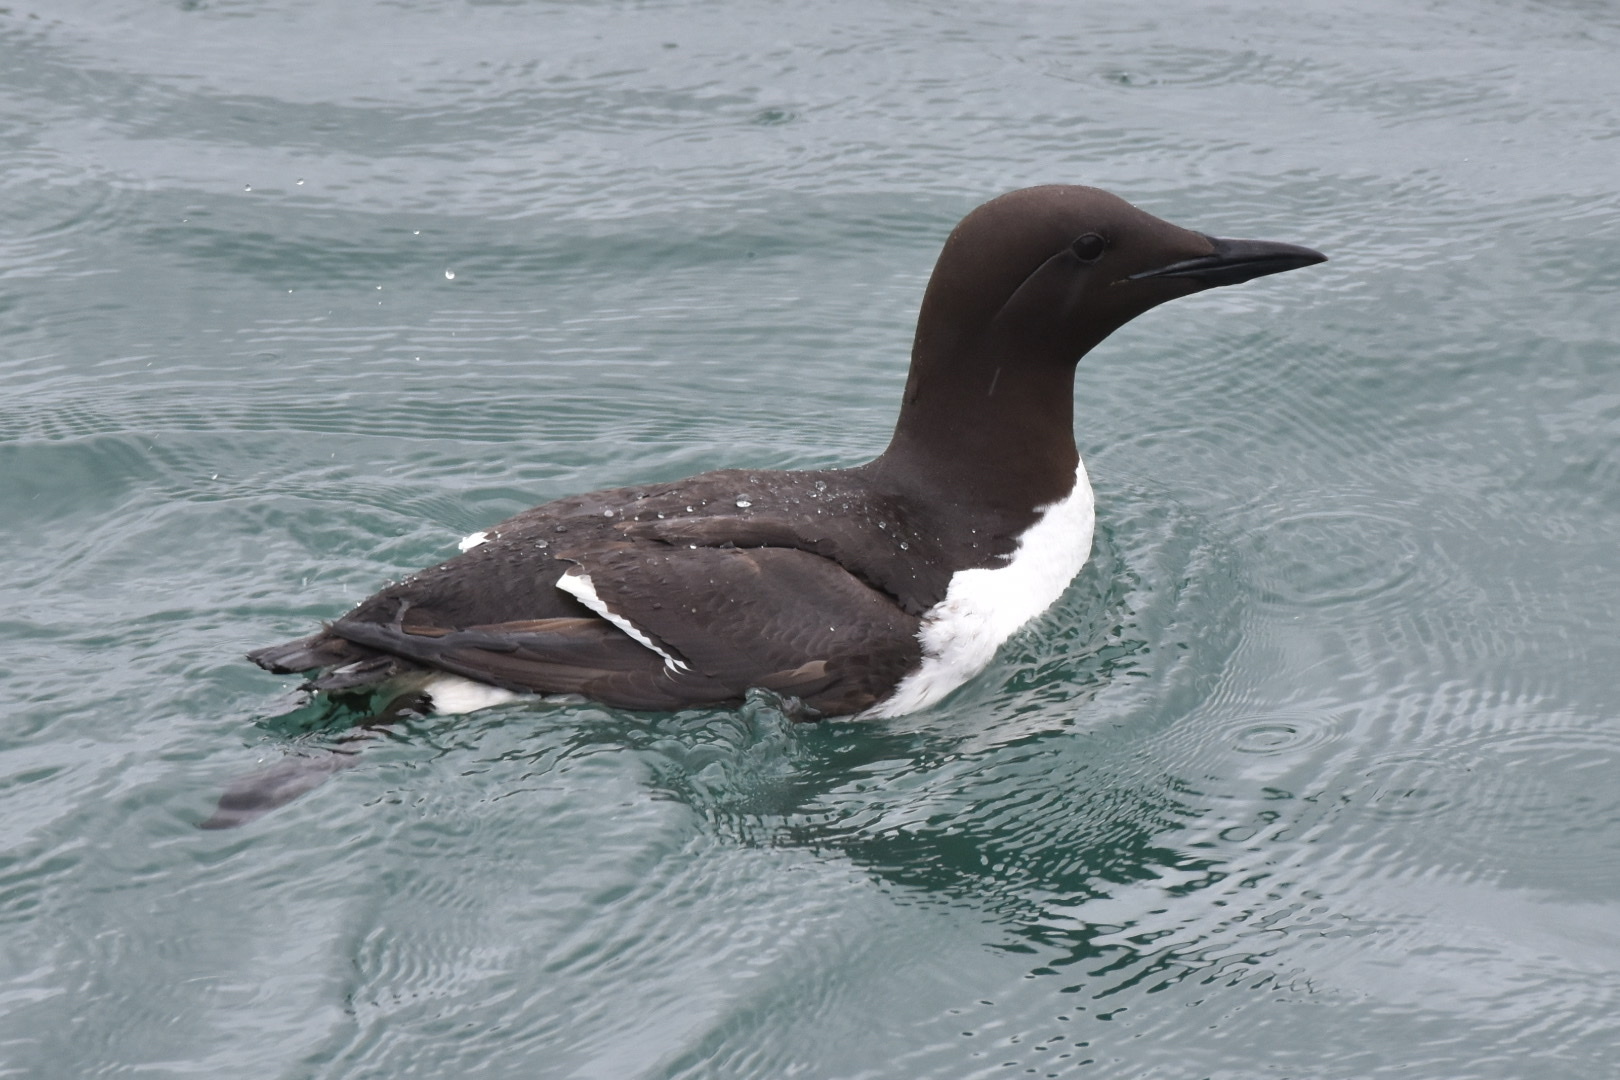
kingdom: Animalia
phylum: Chordata
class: Aves
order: Charadriiformes
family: Alcidae
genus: Uria
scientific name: Uria aalge
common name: Common murre
